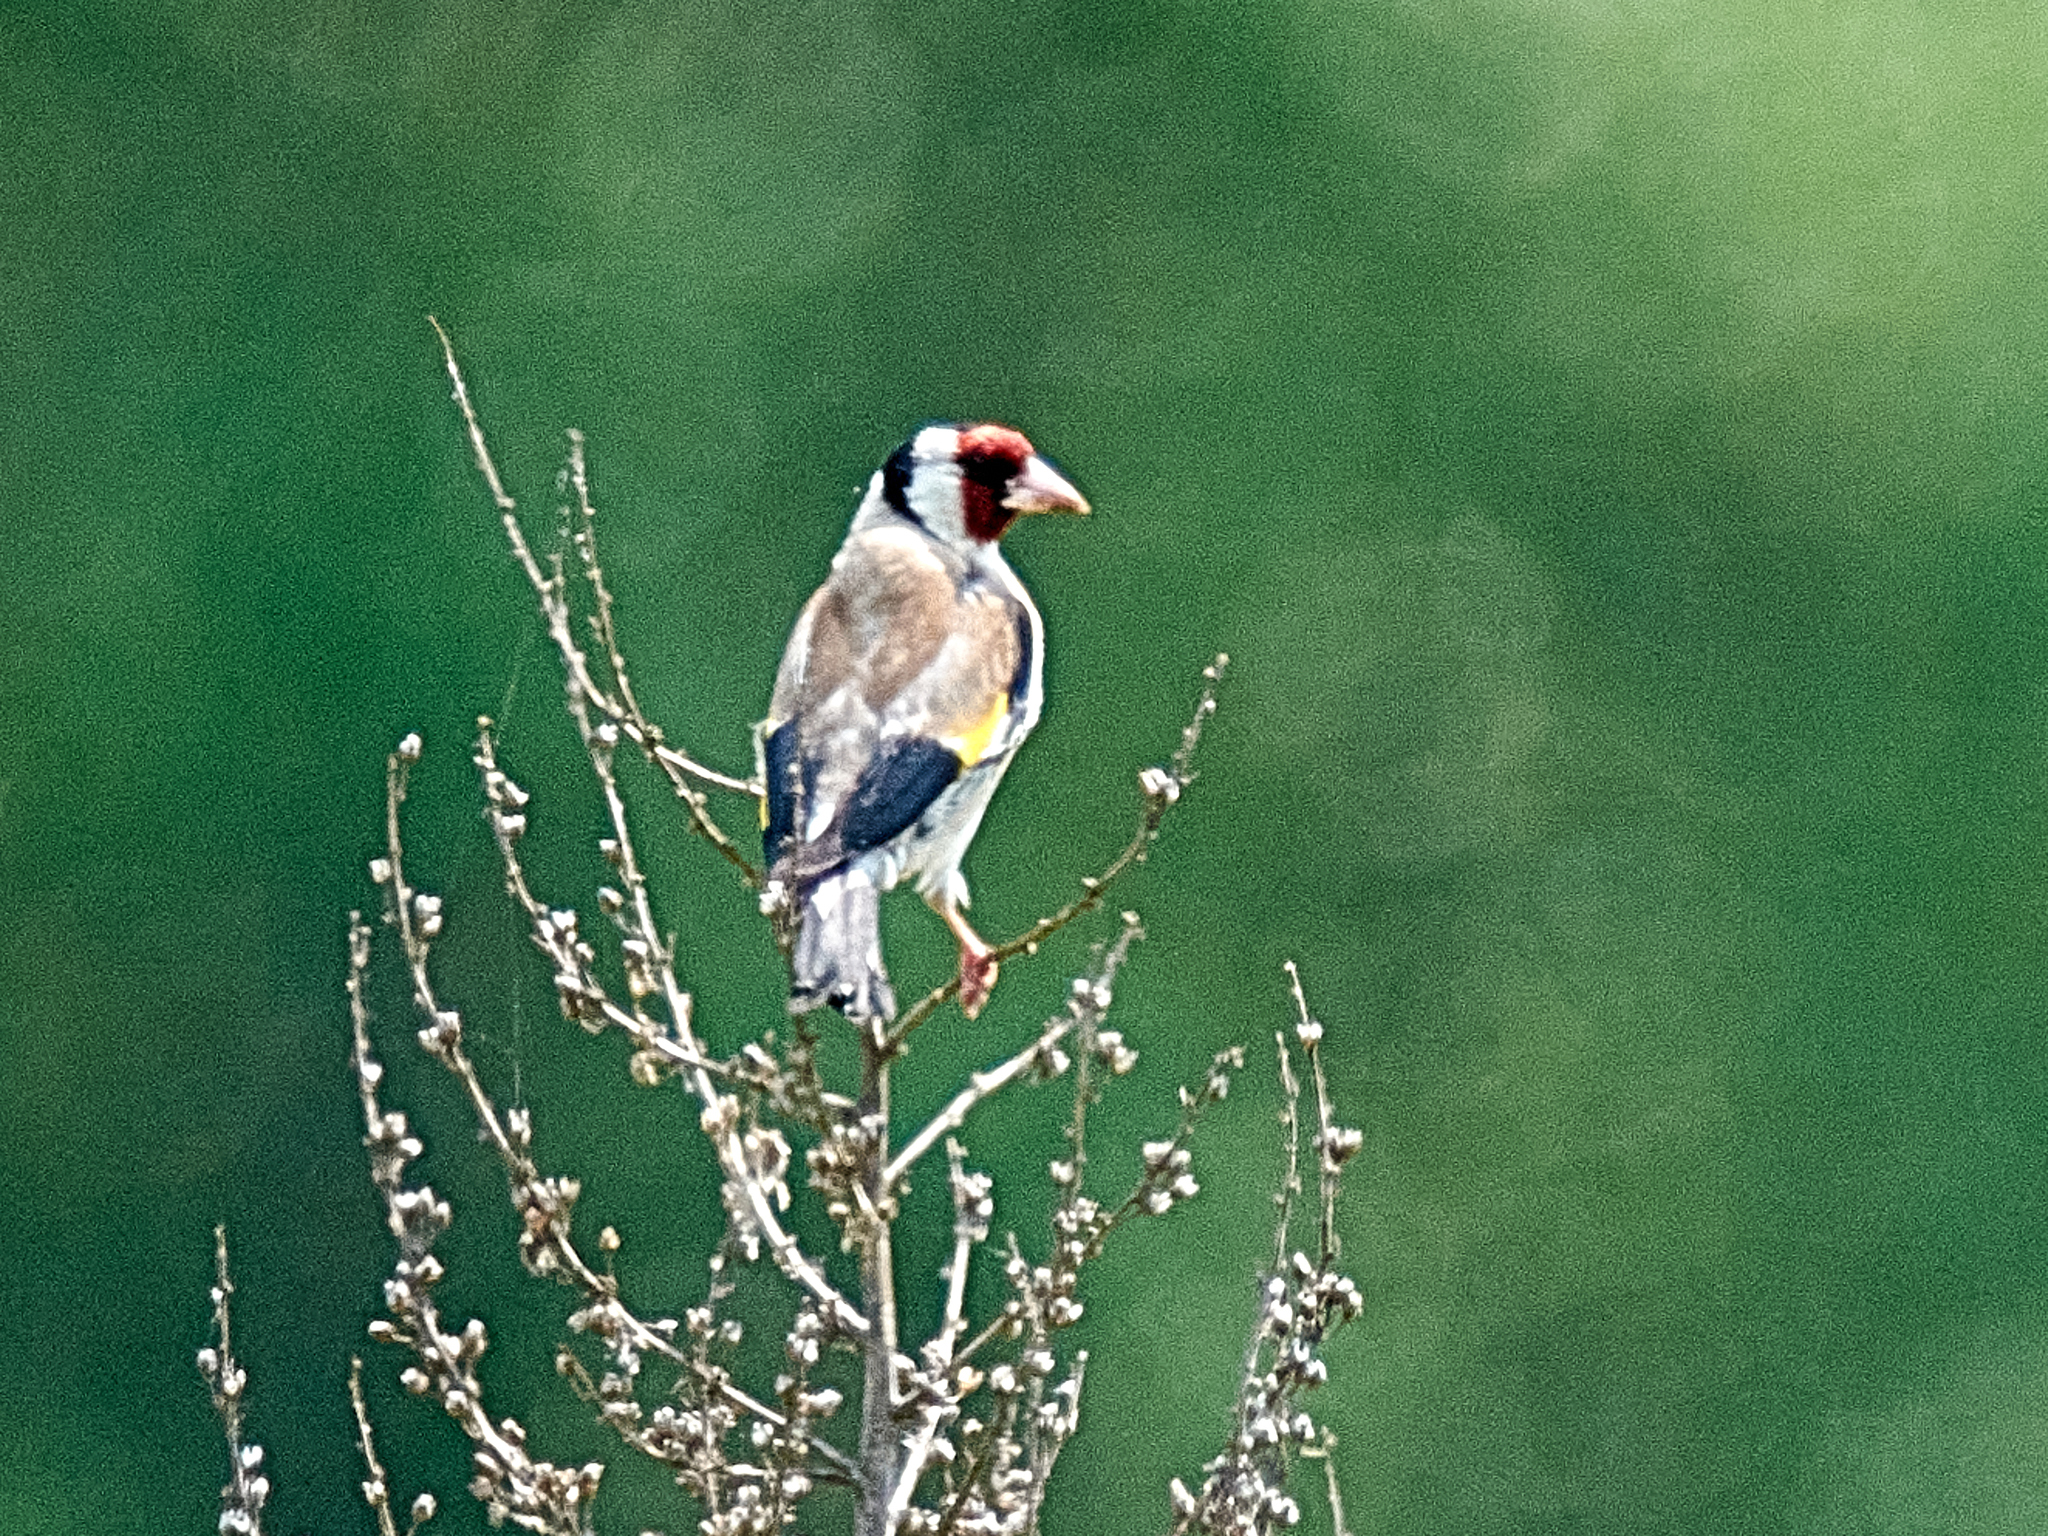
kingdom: Animalia
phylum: Chordata
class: Aves
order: Passeriformes
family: Fringillidae
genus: Carduelis
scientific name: Carduelis carduelis
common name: European goldfinch
